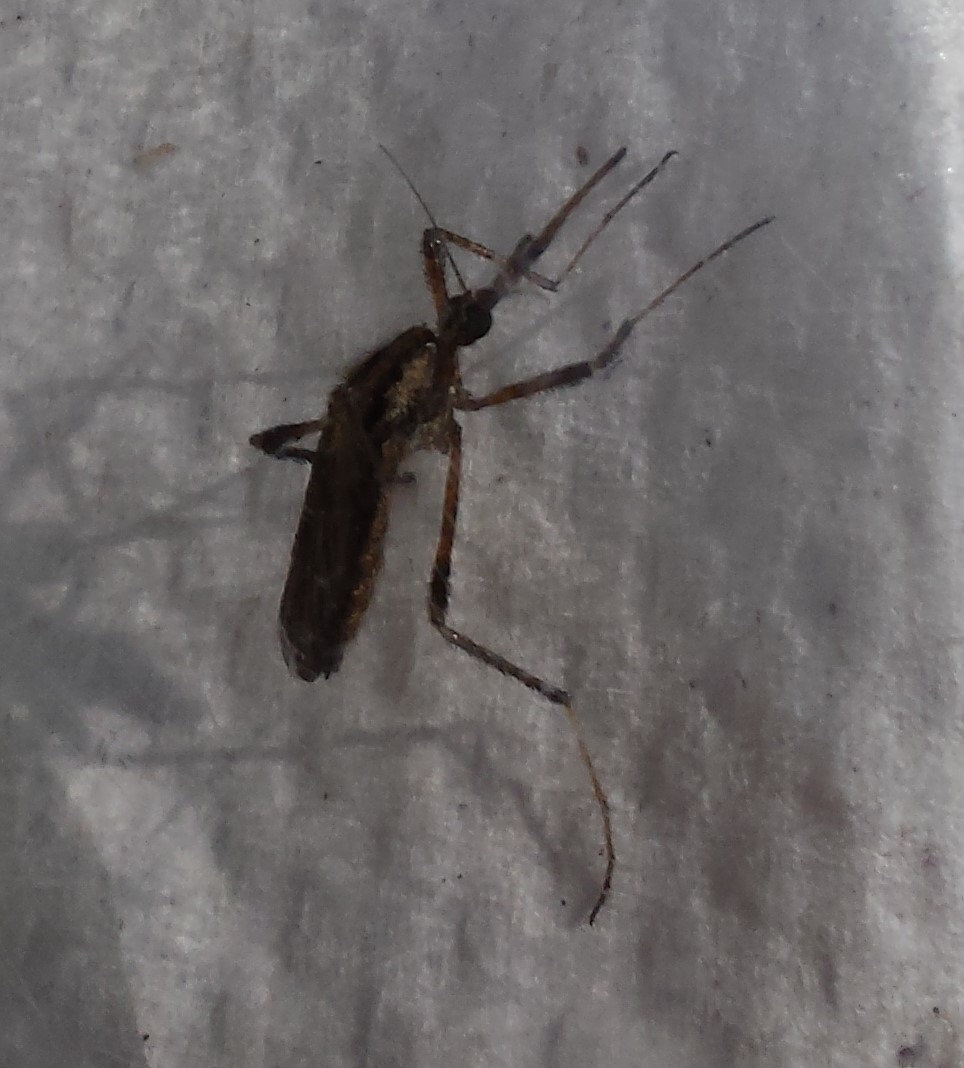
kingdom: Animalia
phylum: Arthropoda
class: Insecta
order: Diptera
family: Culicidae
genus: Psorophora
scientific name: Psorophora ciliata
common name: Gallinipper
